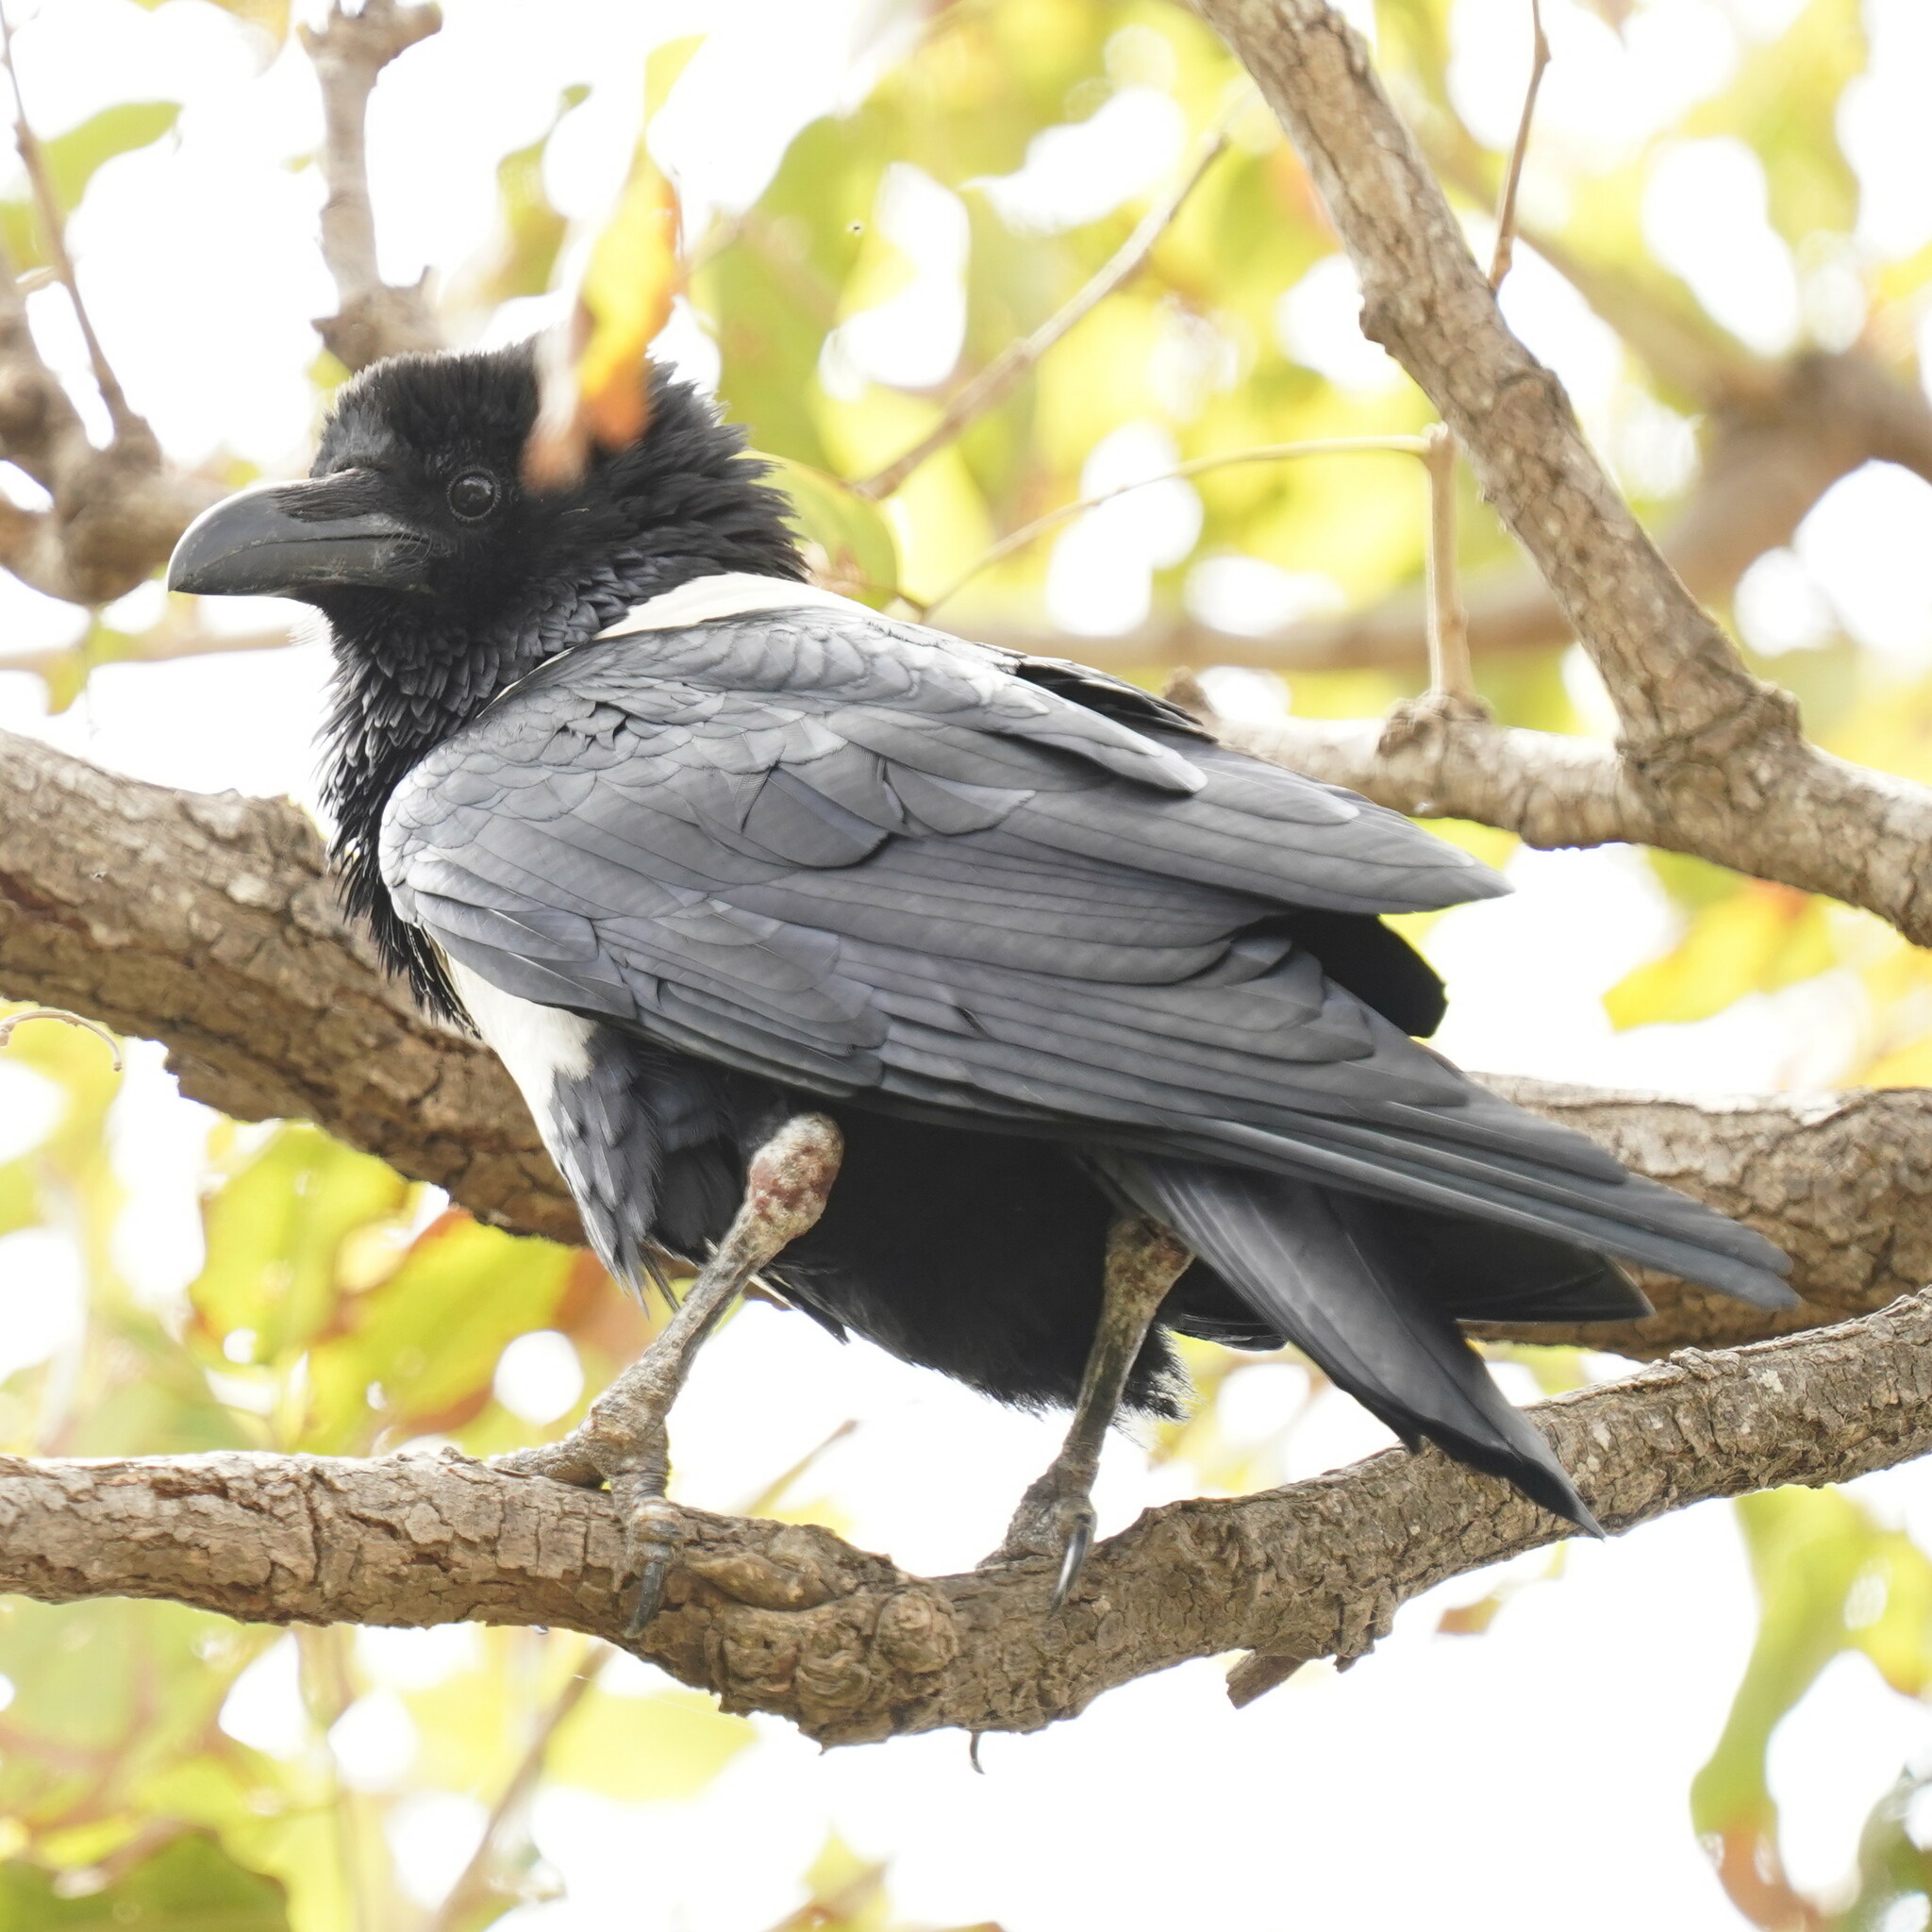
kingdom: Animalia
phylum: Chordata
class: Aves
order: Passeriformes
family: Corvidae
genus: Corvus
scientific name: Corvus albus
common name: Pied crow
